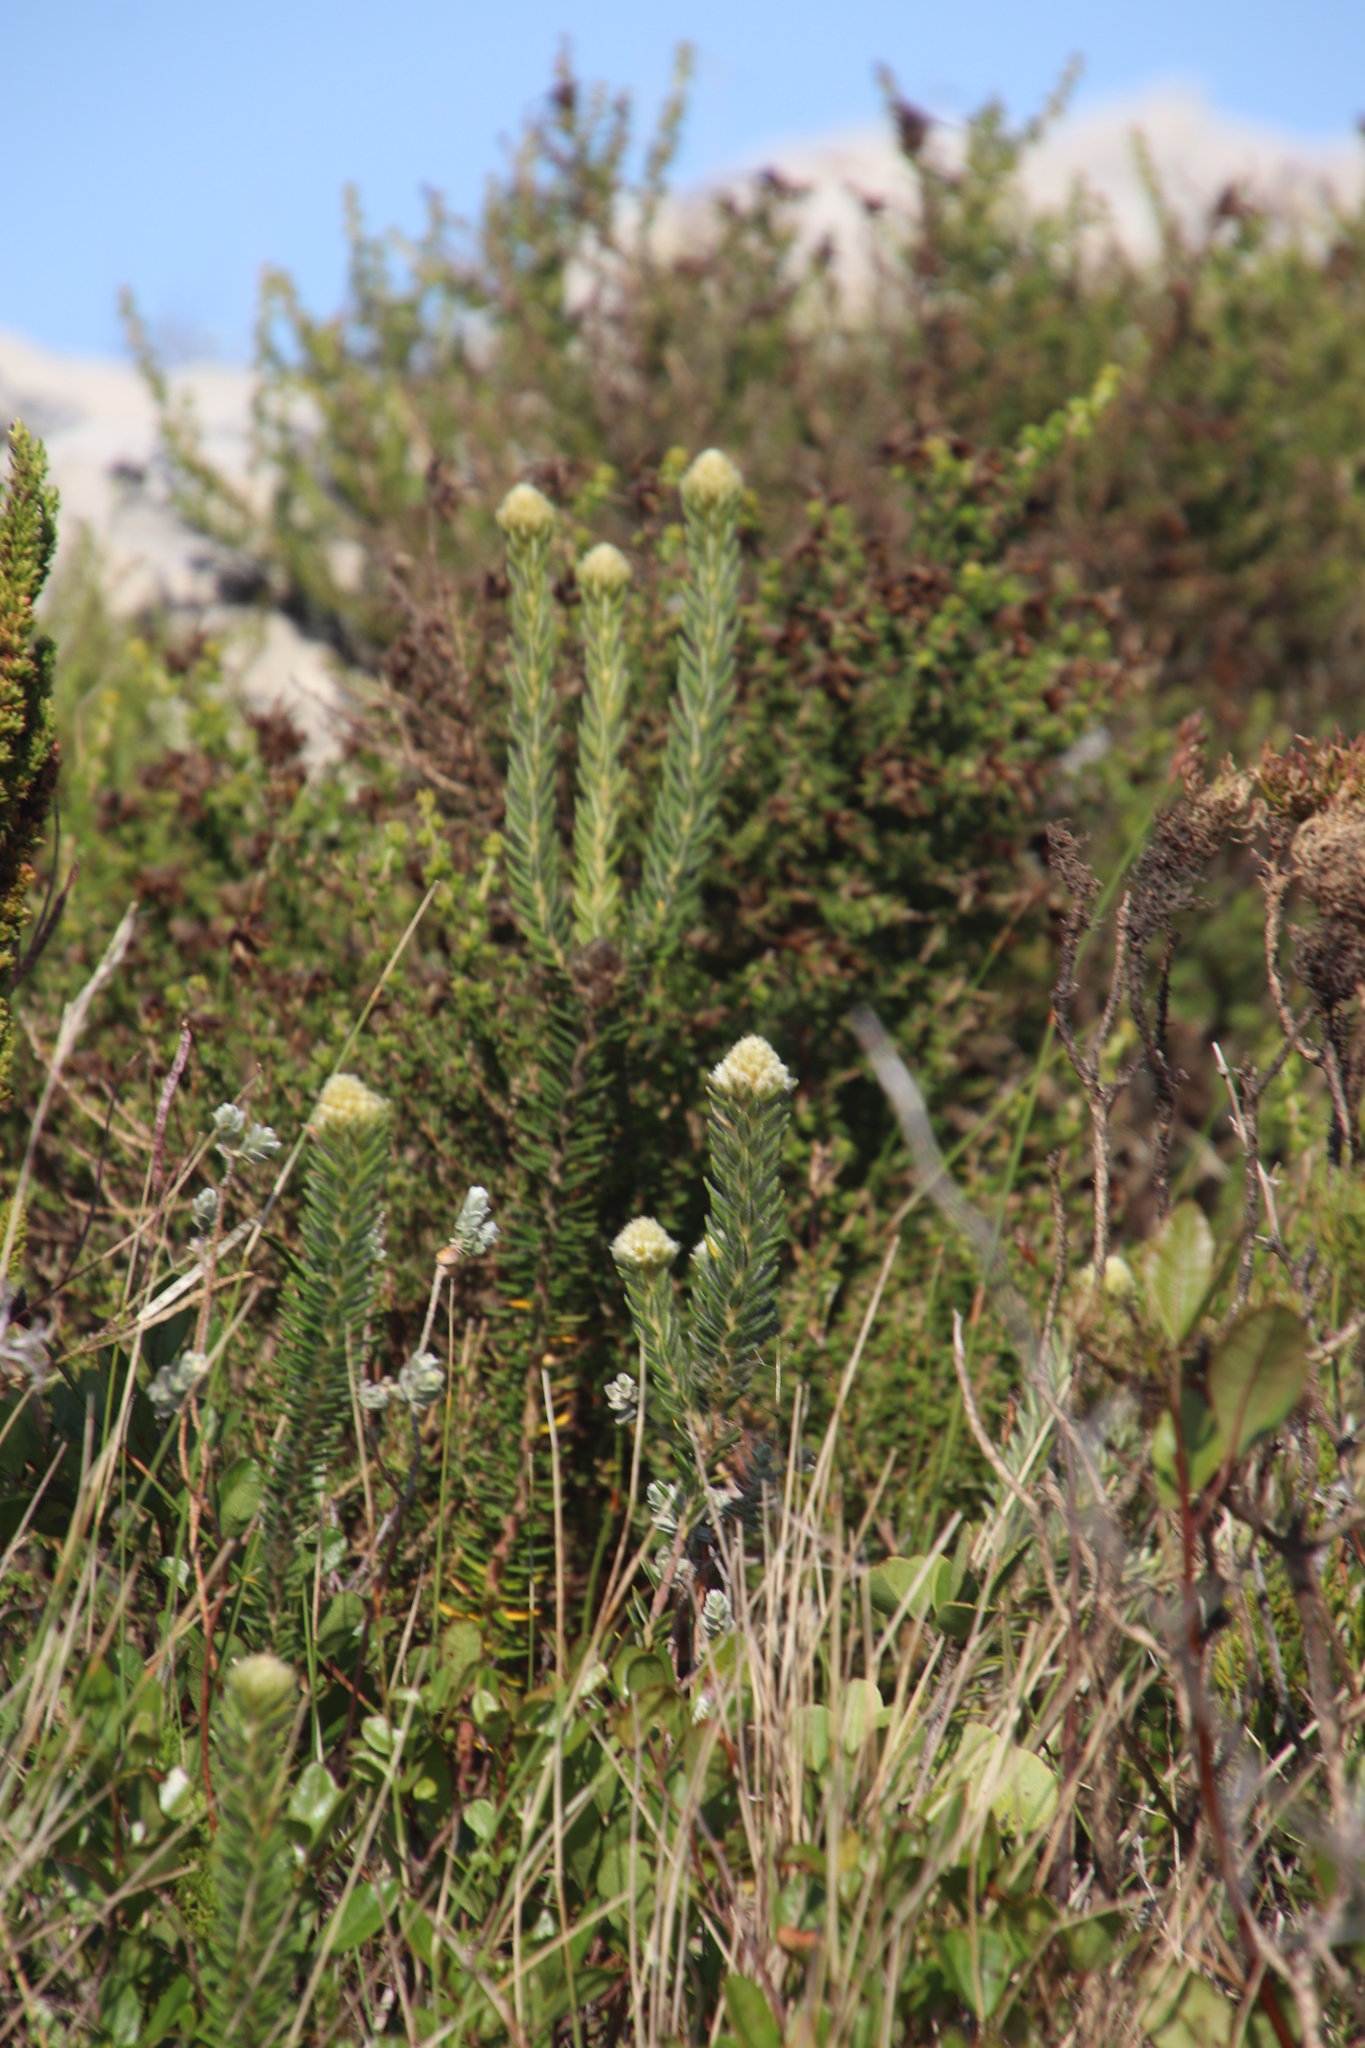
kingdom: Plantae
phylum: Tracheophyta
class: Magnoliopsida
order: Rosales
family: Rhamnaceae
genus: Phylica
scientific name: Phylica dioica
